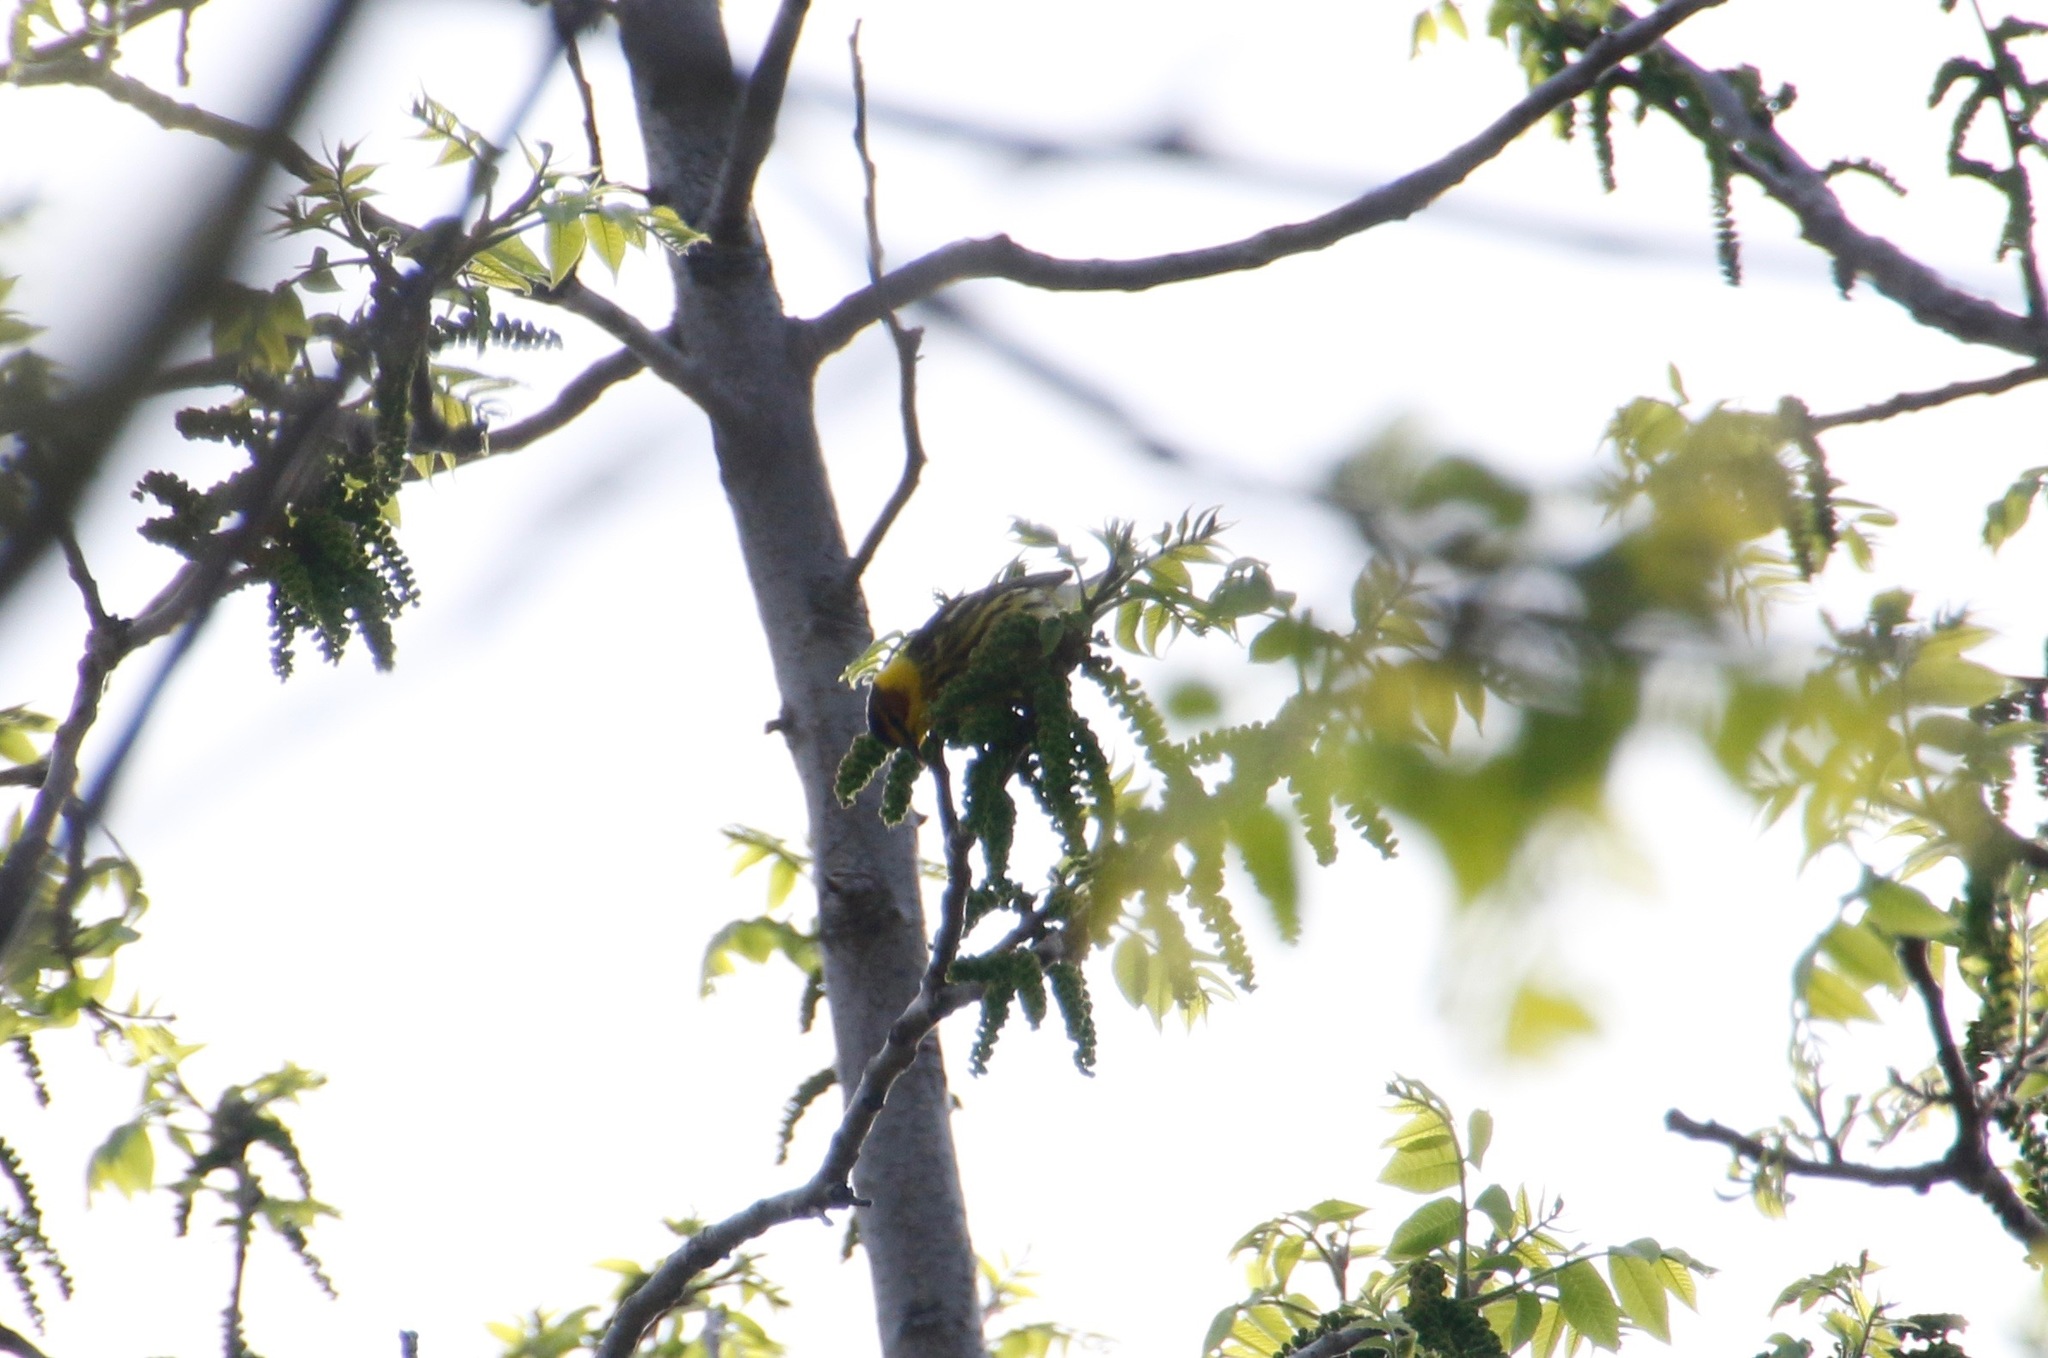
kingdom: Animalia
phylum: Chordata
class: Aves
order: Passeriformes
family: Parulidae
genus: Setophaga
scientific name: Setophaga tigrina
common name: Cape may warbler
